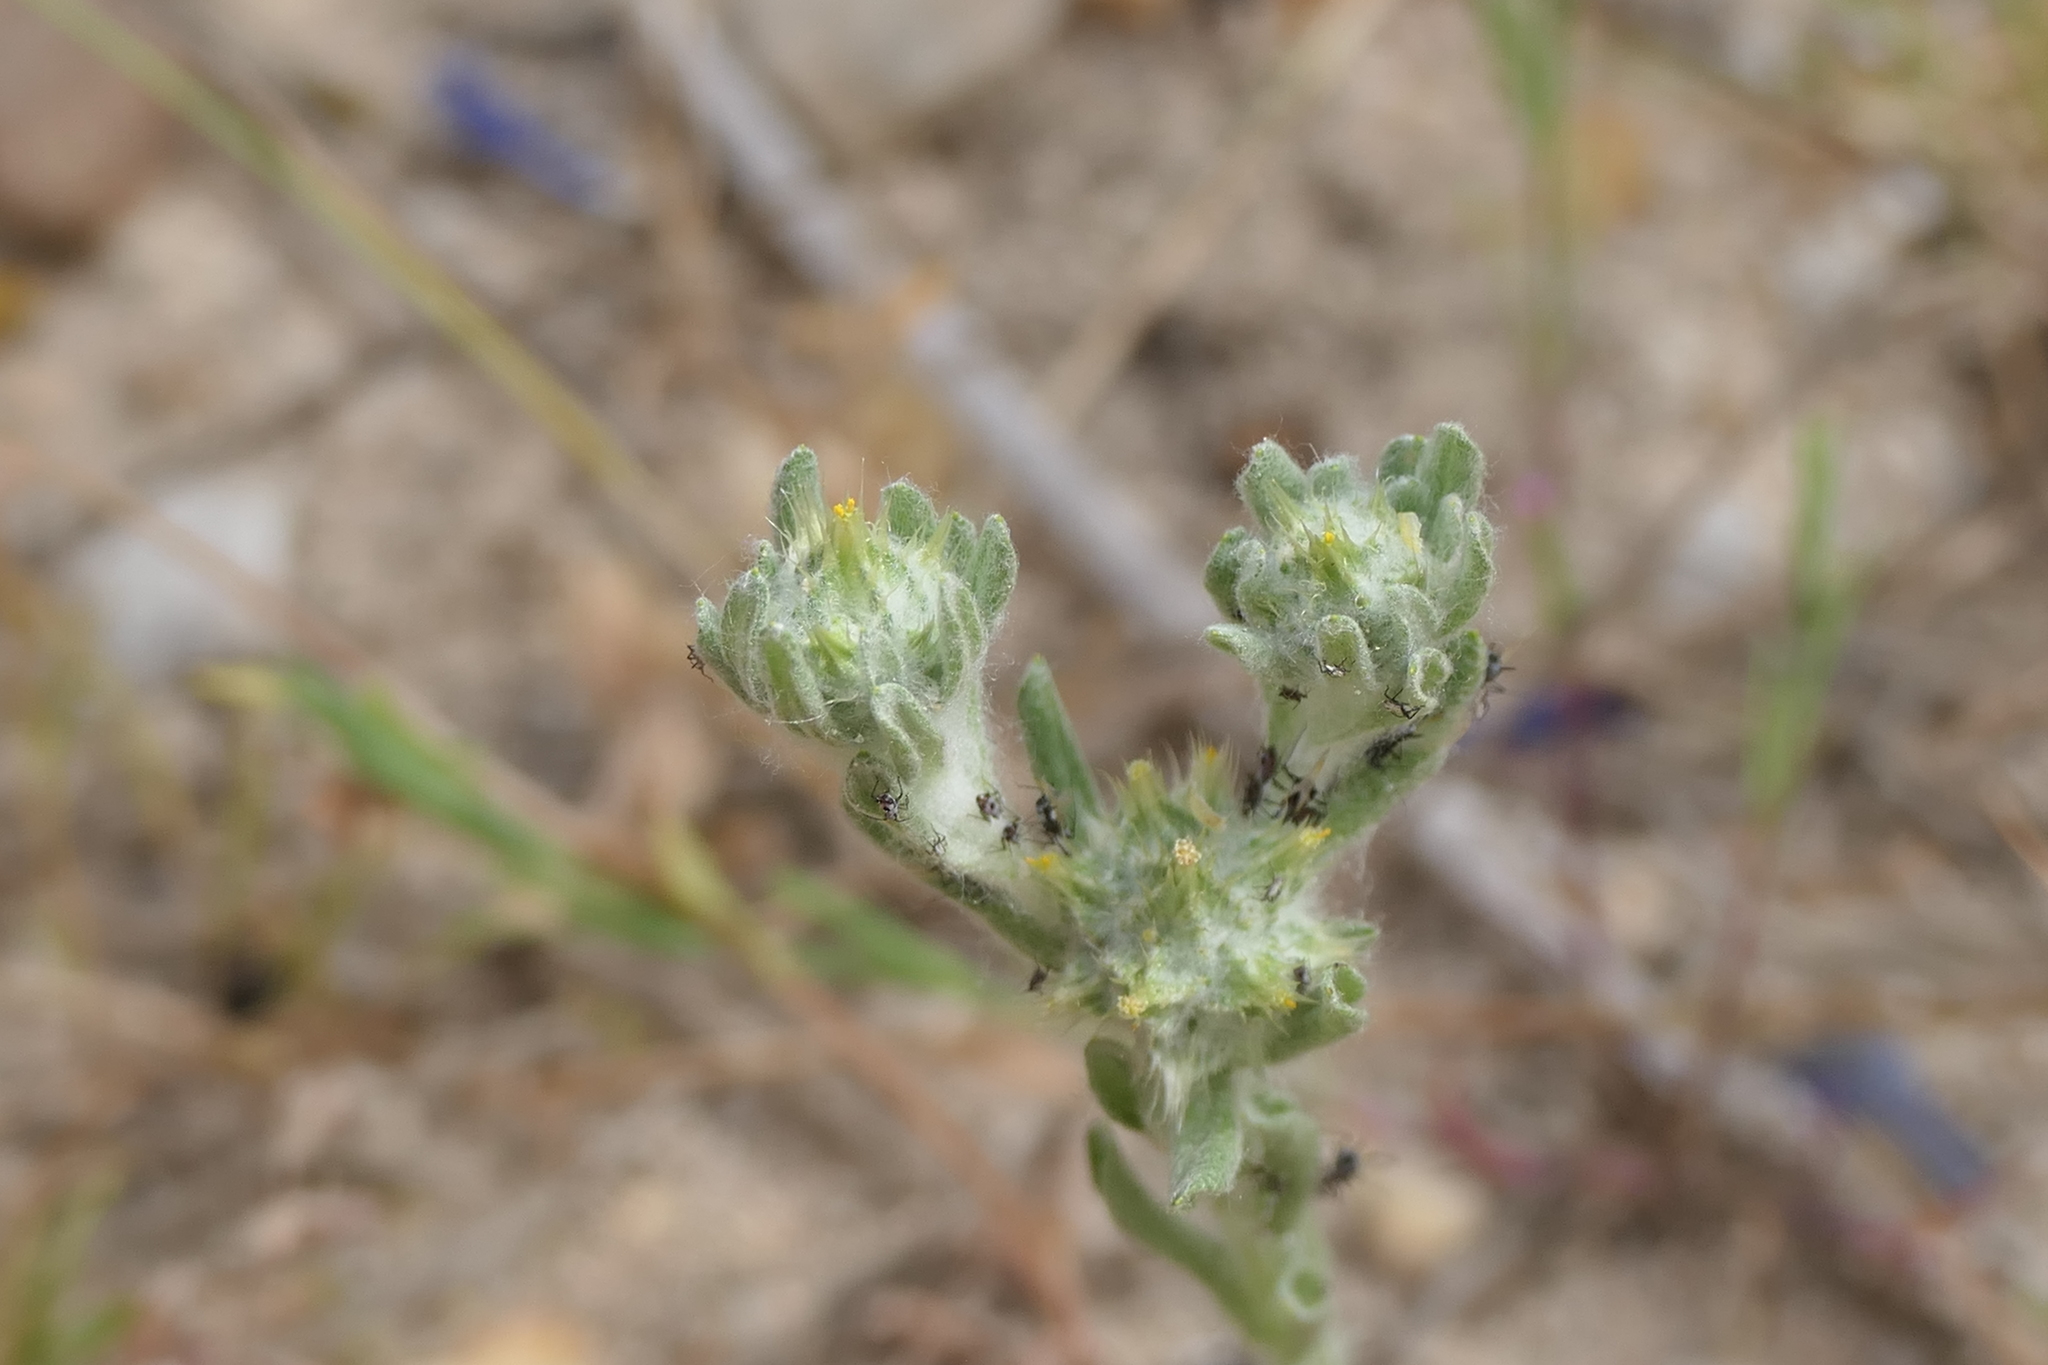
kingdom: Plantae
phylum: Tracheophyta
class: Magnoliopsida
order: Asterales
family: Asteraceae
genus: Filago
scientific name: Filago pyramidata
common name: Broad-leaved cudweed
